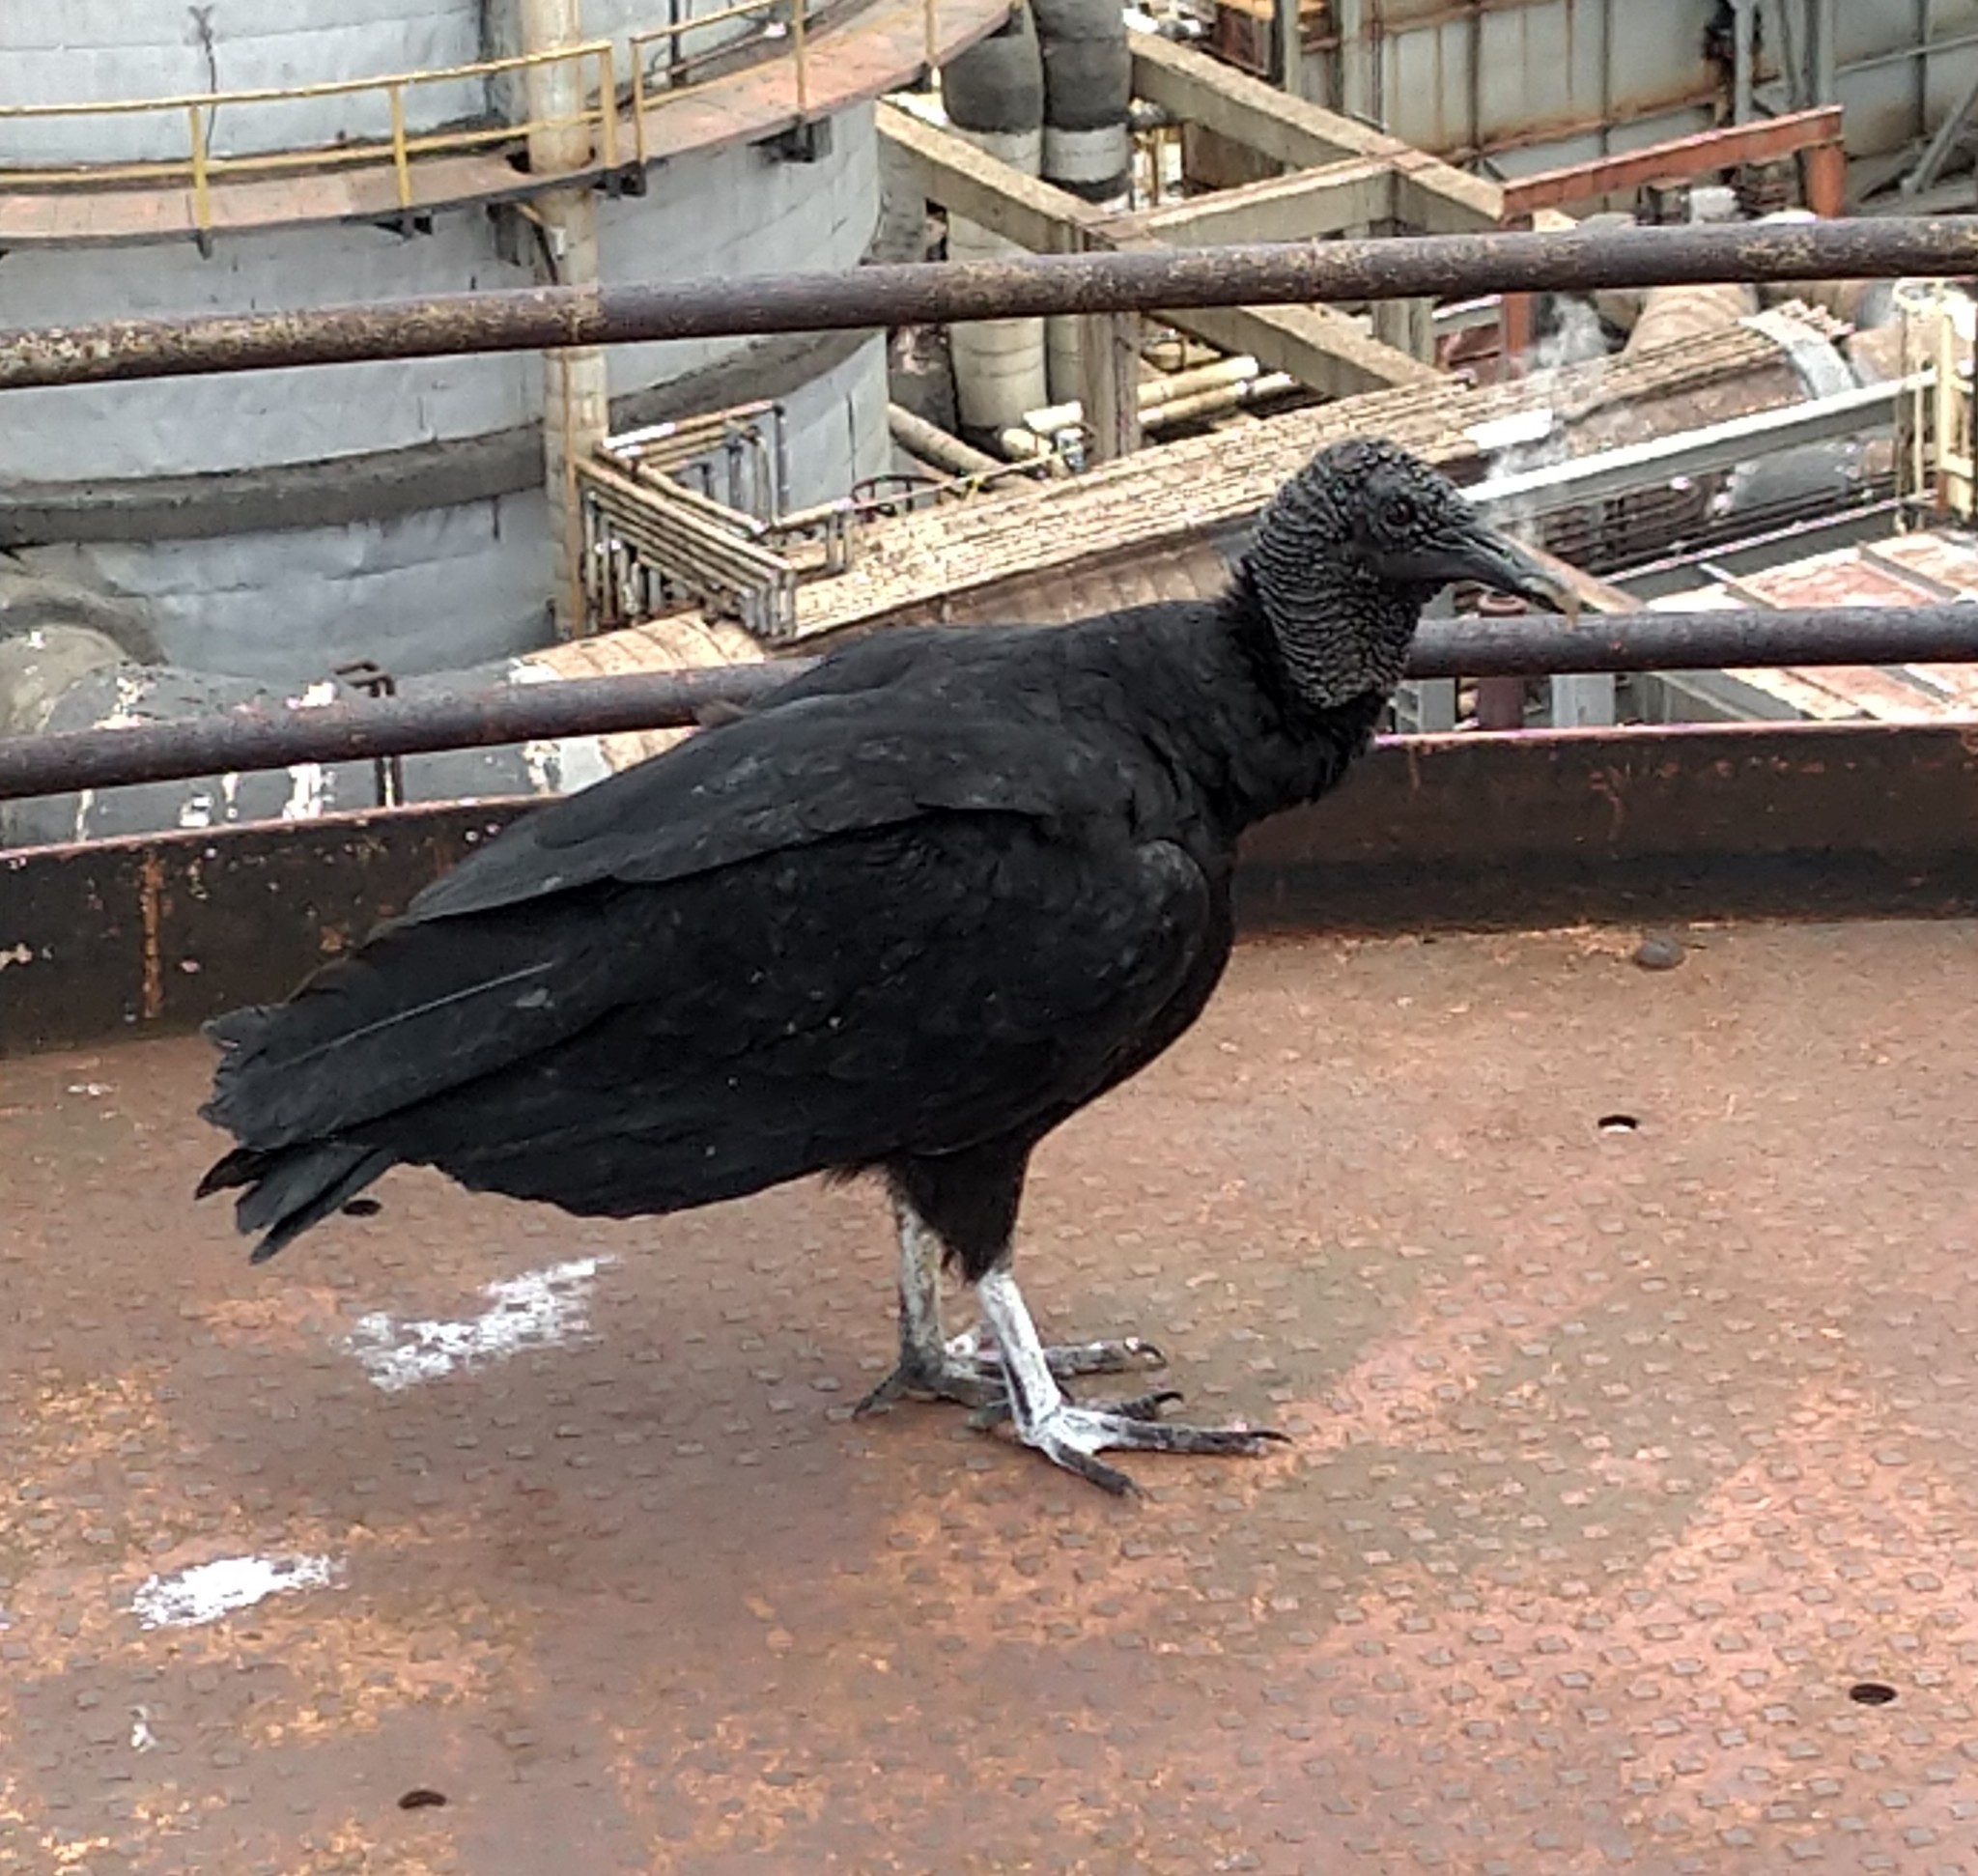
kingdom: Animalia
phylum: Chordata
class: Aves
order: Accipitriformes
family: Cathartidae
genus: Coragyps
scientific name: Coragyps atratus
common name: Black vulture
